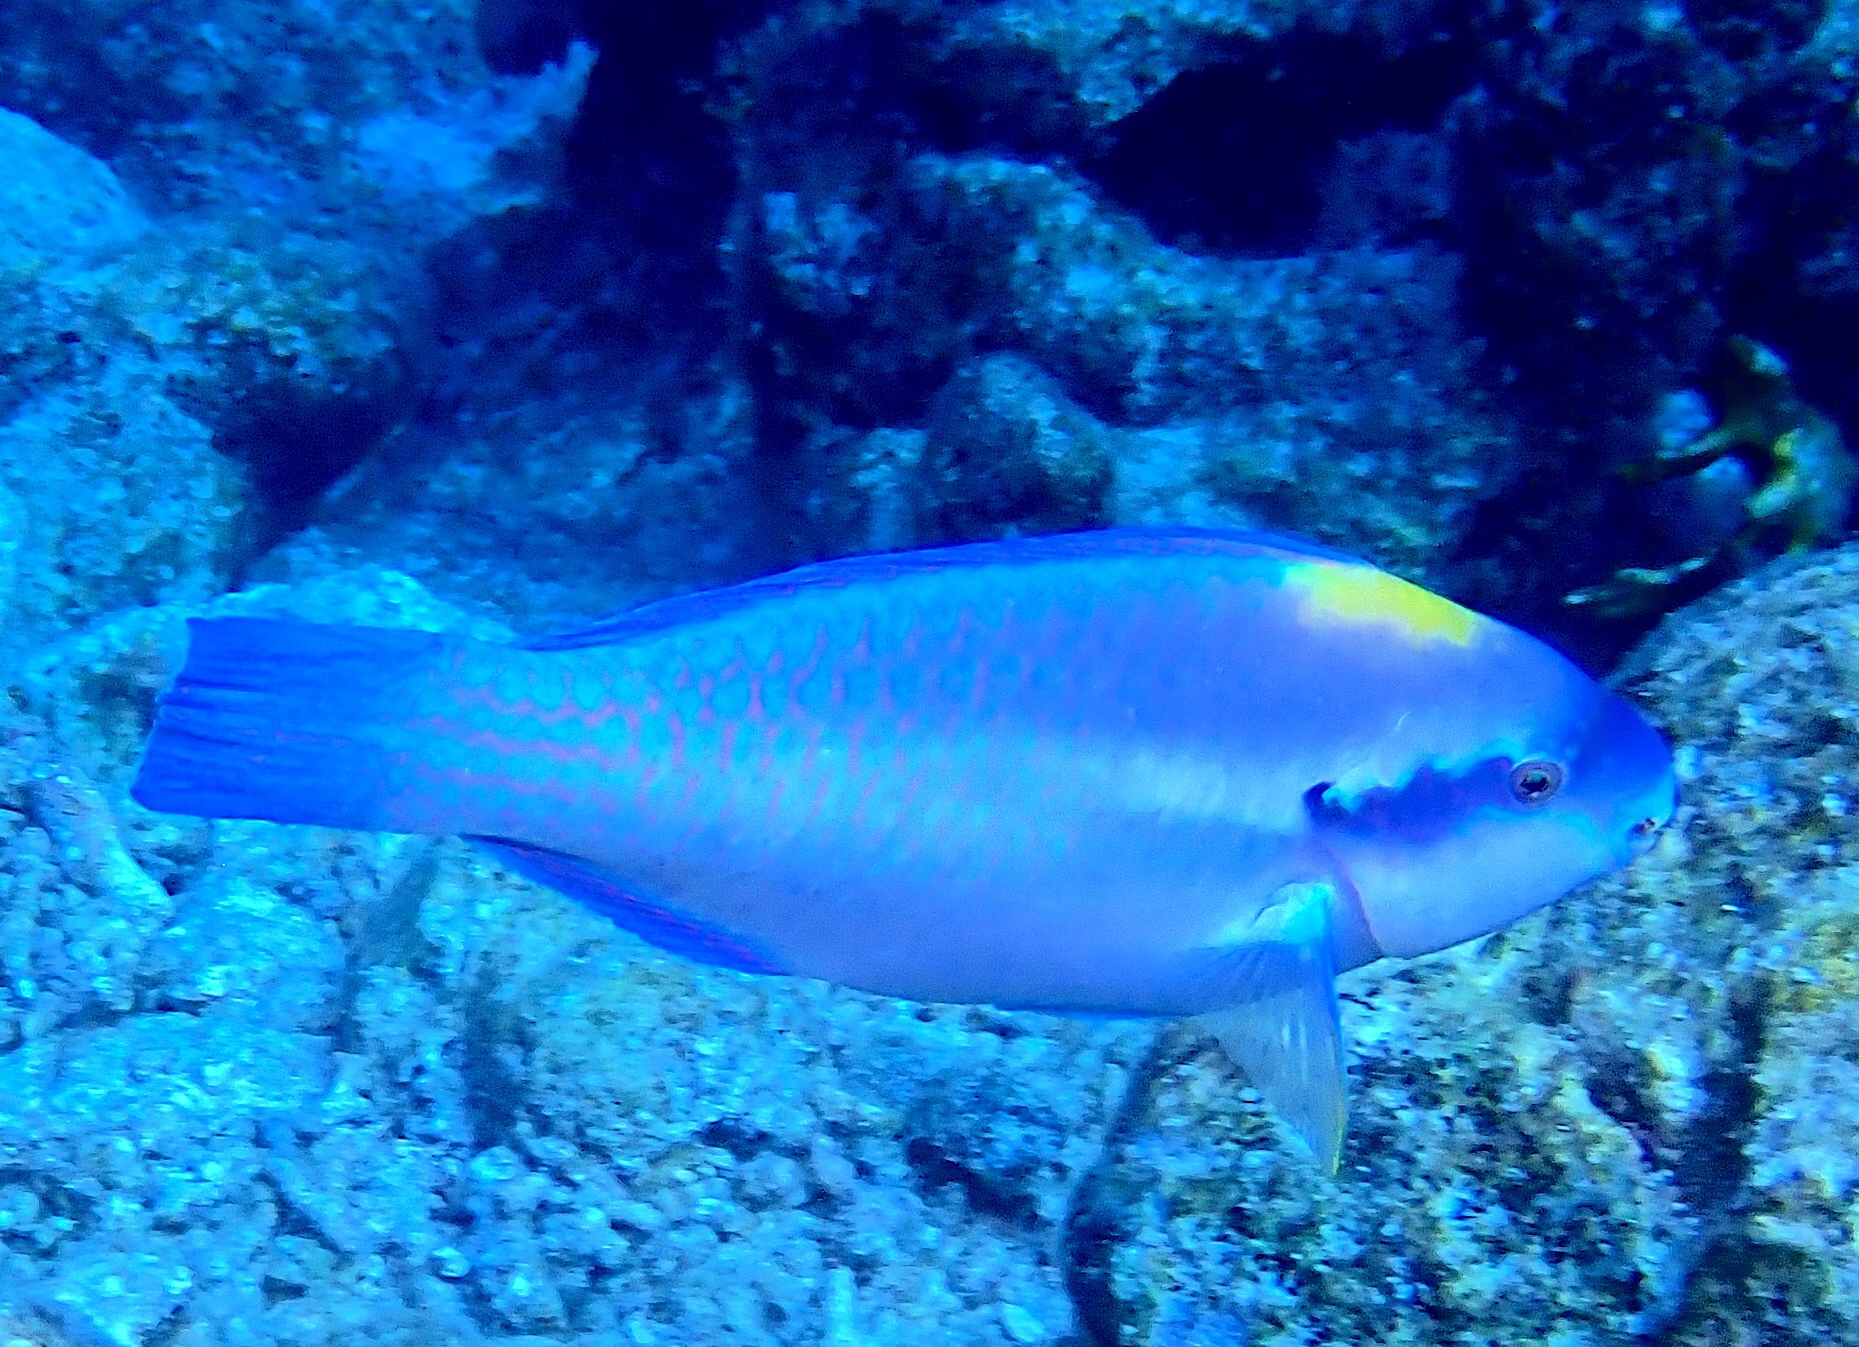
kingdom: Animalia
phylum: Chordata
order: Perciformes
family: Scaridae
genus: Scarus
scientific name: Scarus iseri
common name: Striped parrotfish
